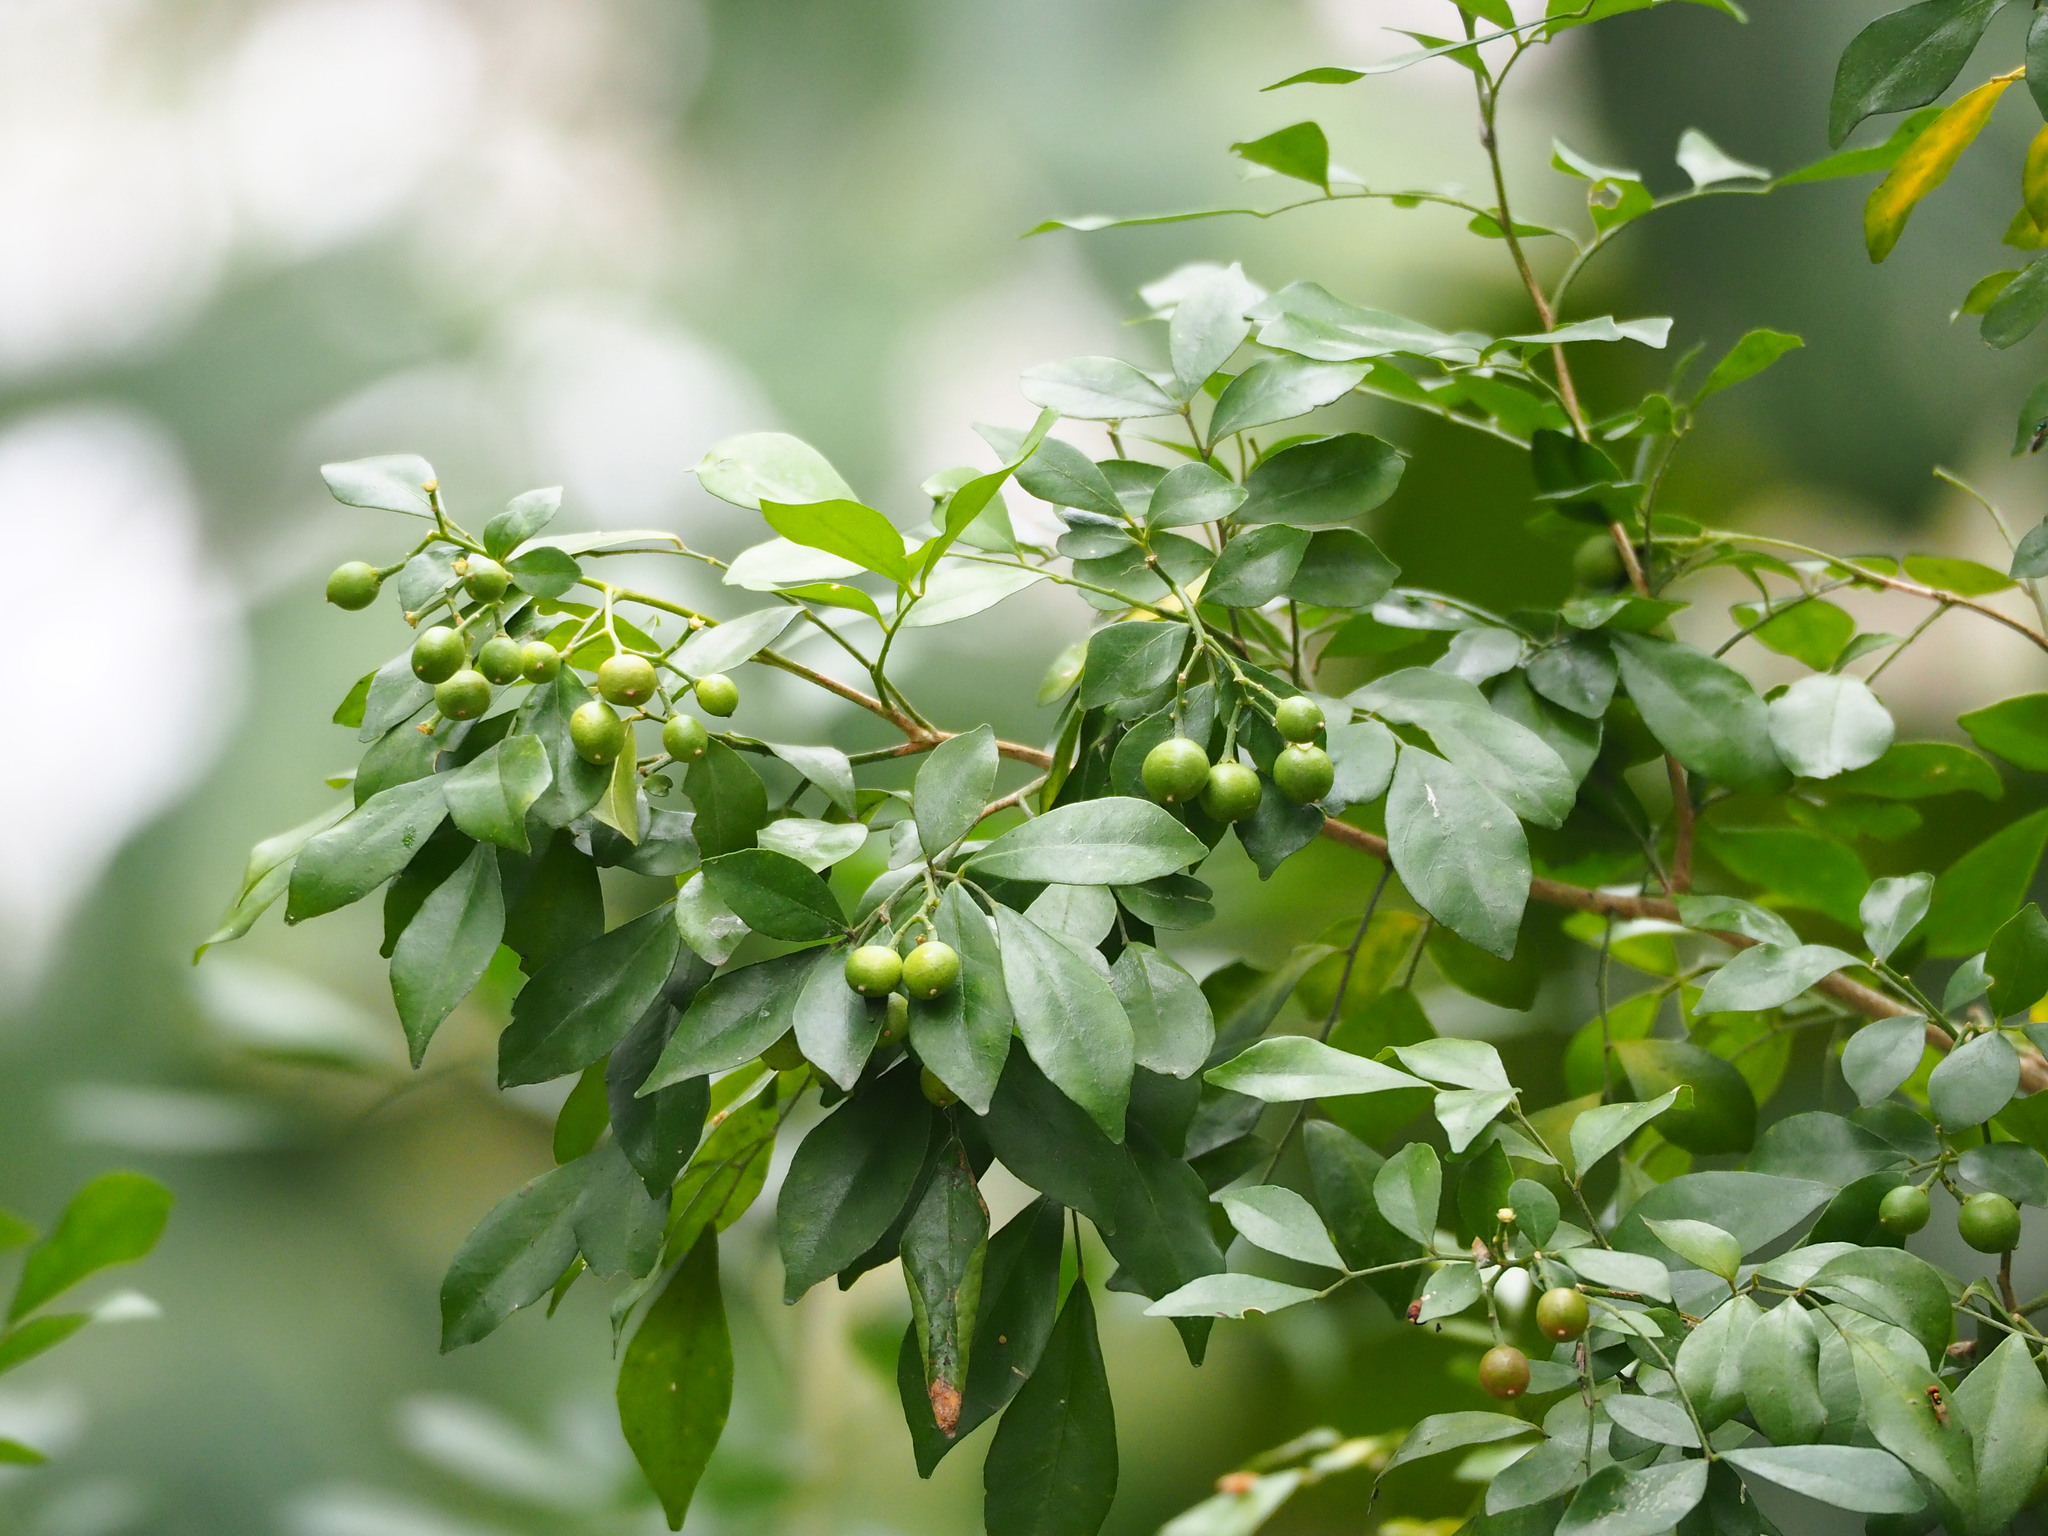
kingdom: Plantae
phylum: Tracheophyta
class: Magnoliopsida
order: Sapindales
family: Rutaceae
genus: Murraya
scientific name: Murraya paniculata
